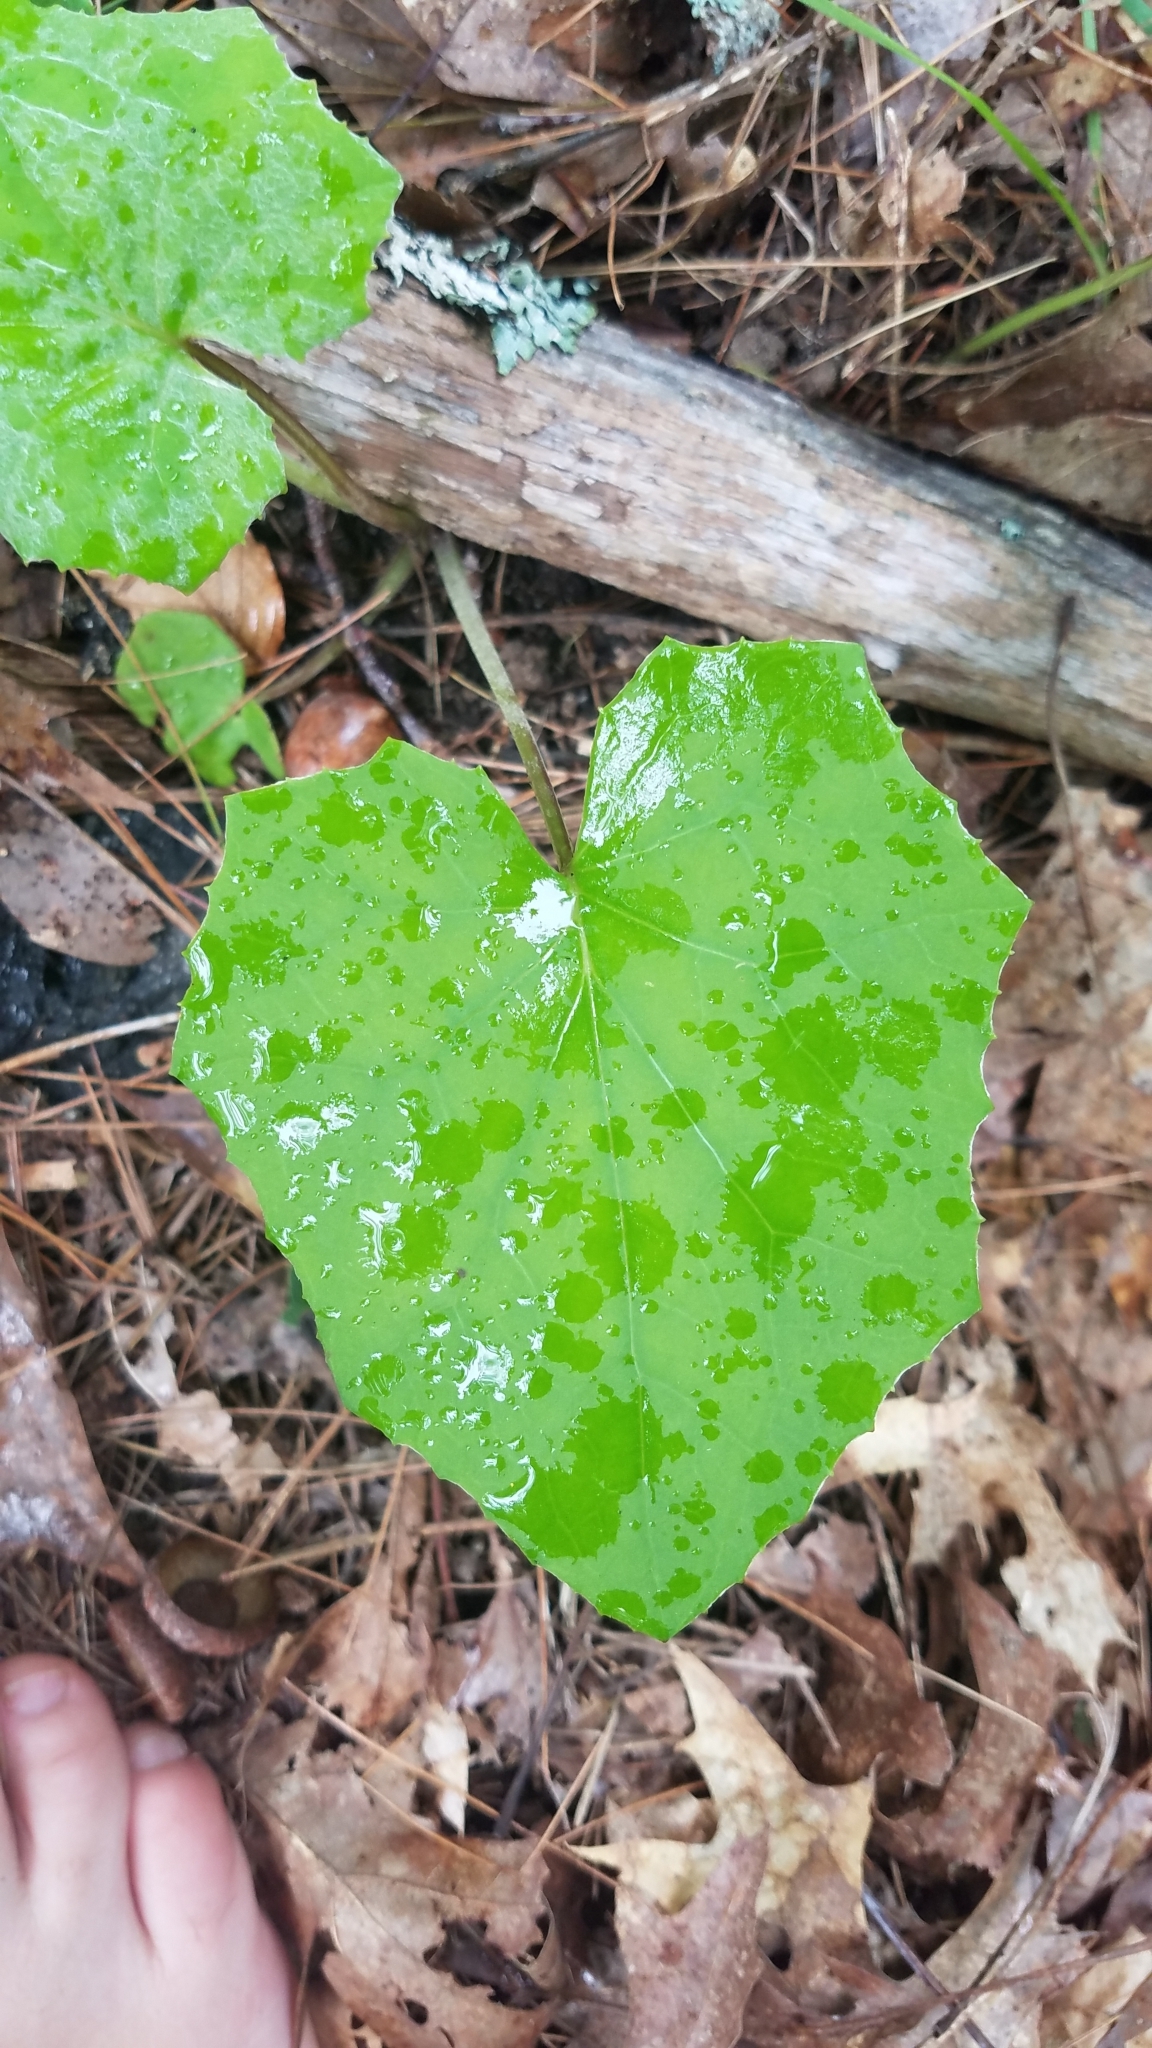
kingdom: Plantae
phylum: Tracheophyta
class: Magnoliopsida
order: Asterales
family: Asteraceae
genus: Tussilago
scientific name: Tussilago farfara
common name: Coltsfoot
